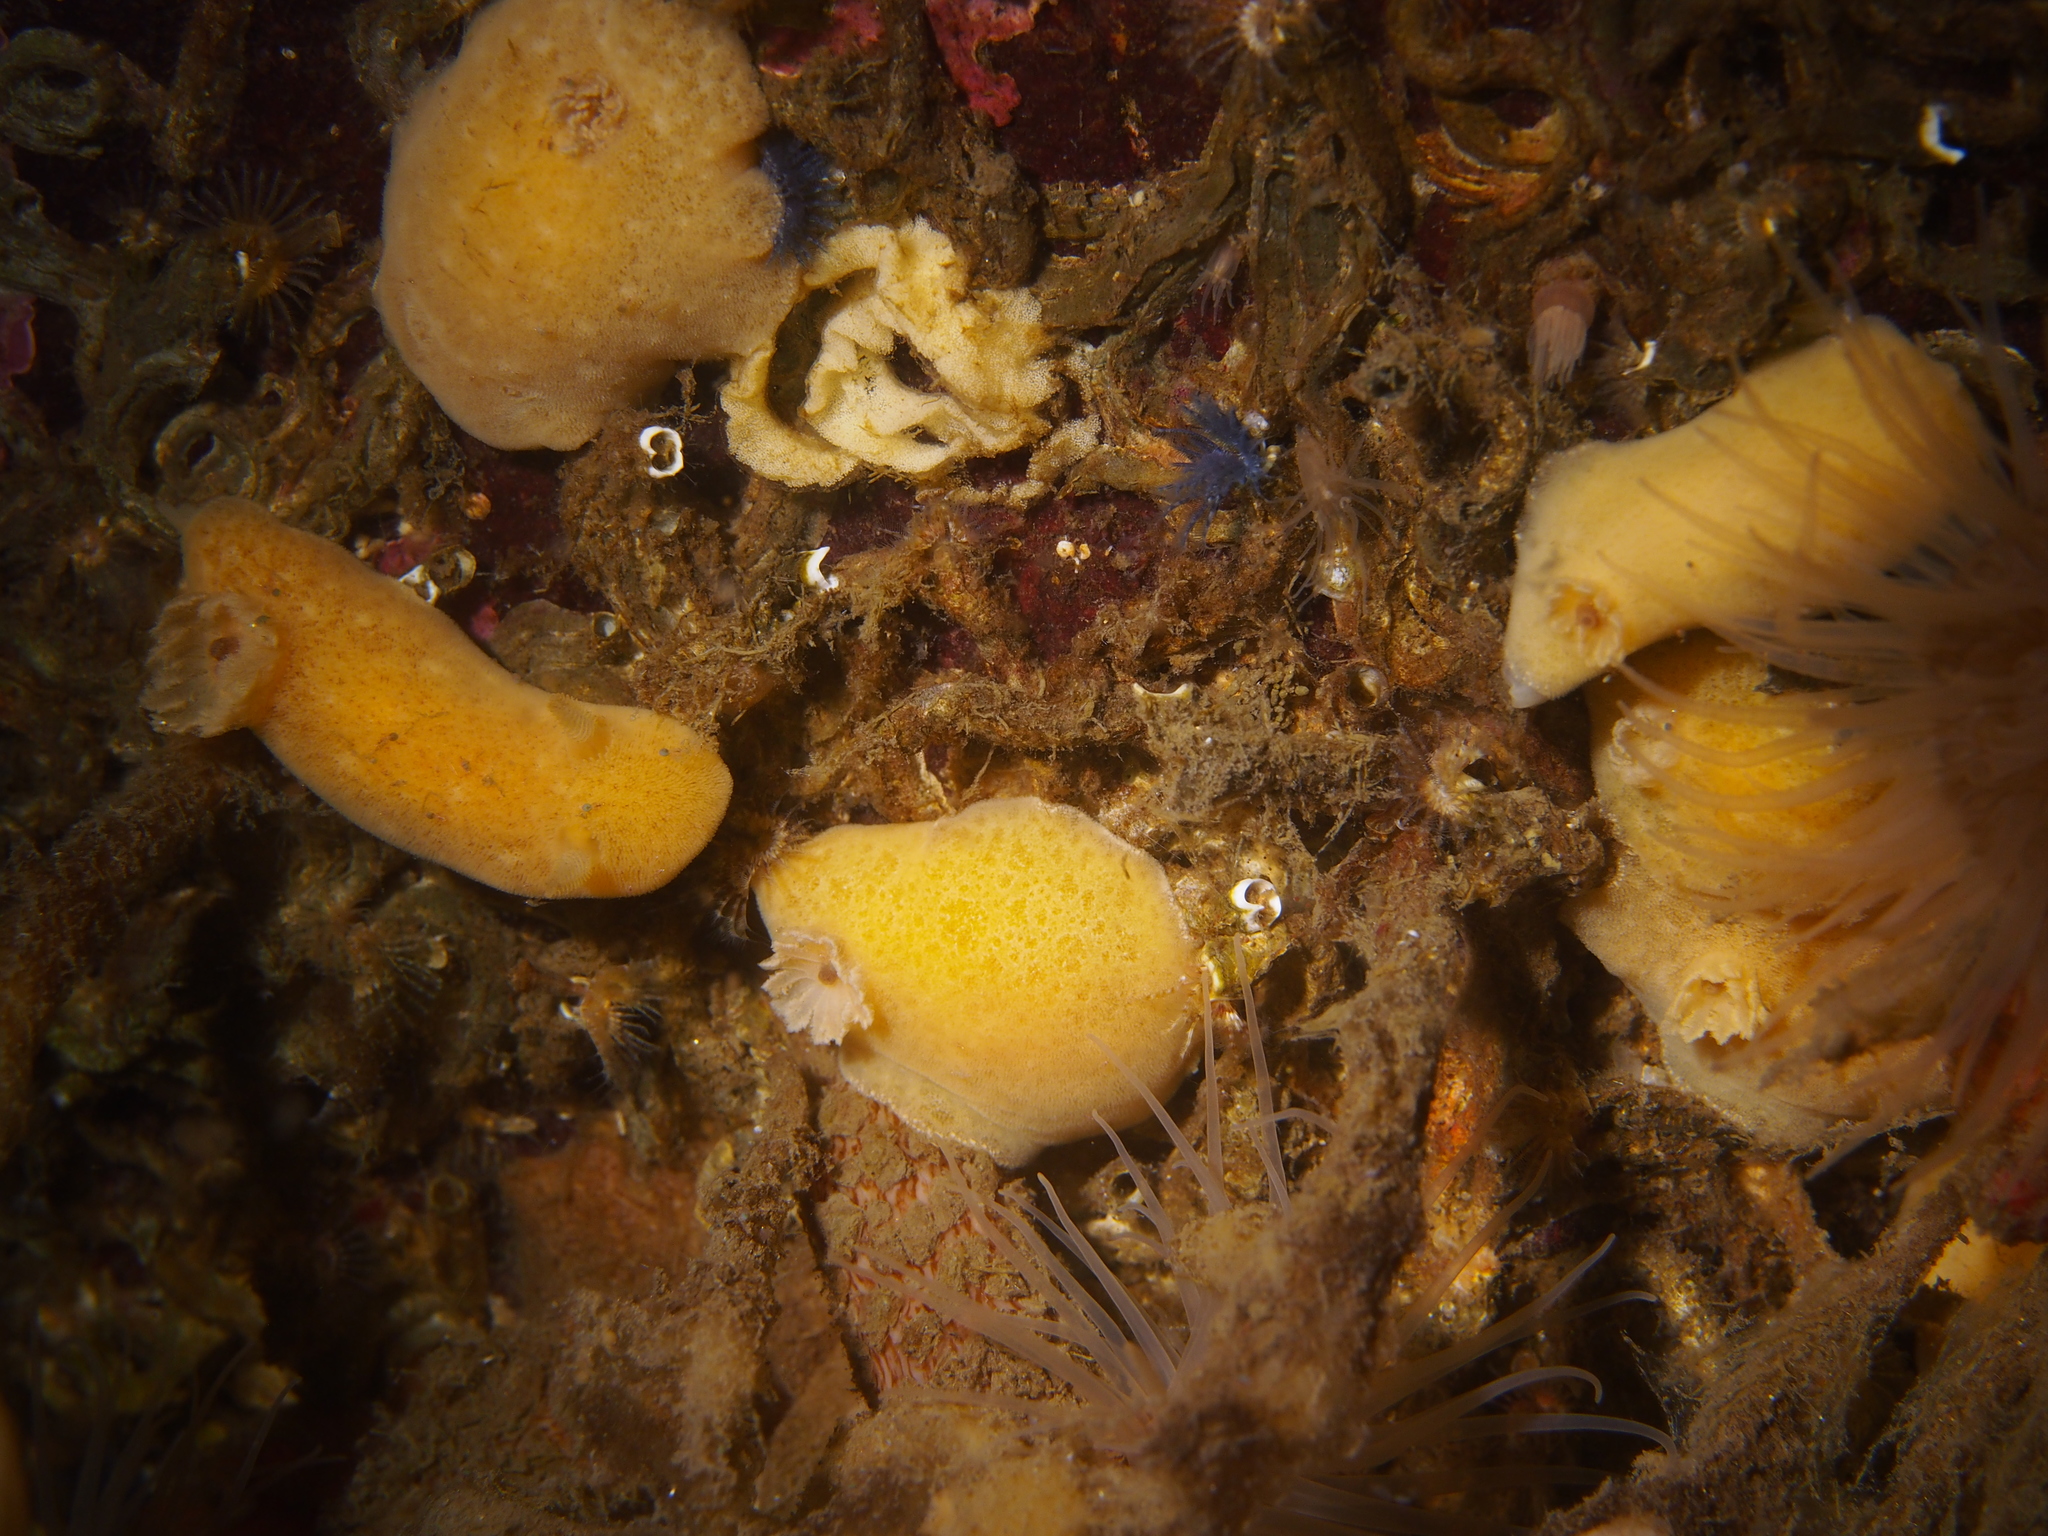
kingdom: Animalia
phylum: Mollusca
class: Gastropoda
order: Nudibranchia
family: Discodorididae
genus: Jorunna
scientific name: Jorunna tomentosa
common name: Grey sea slug
